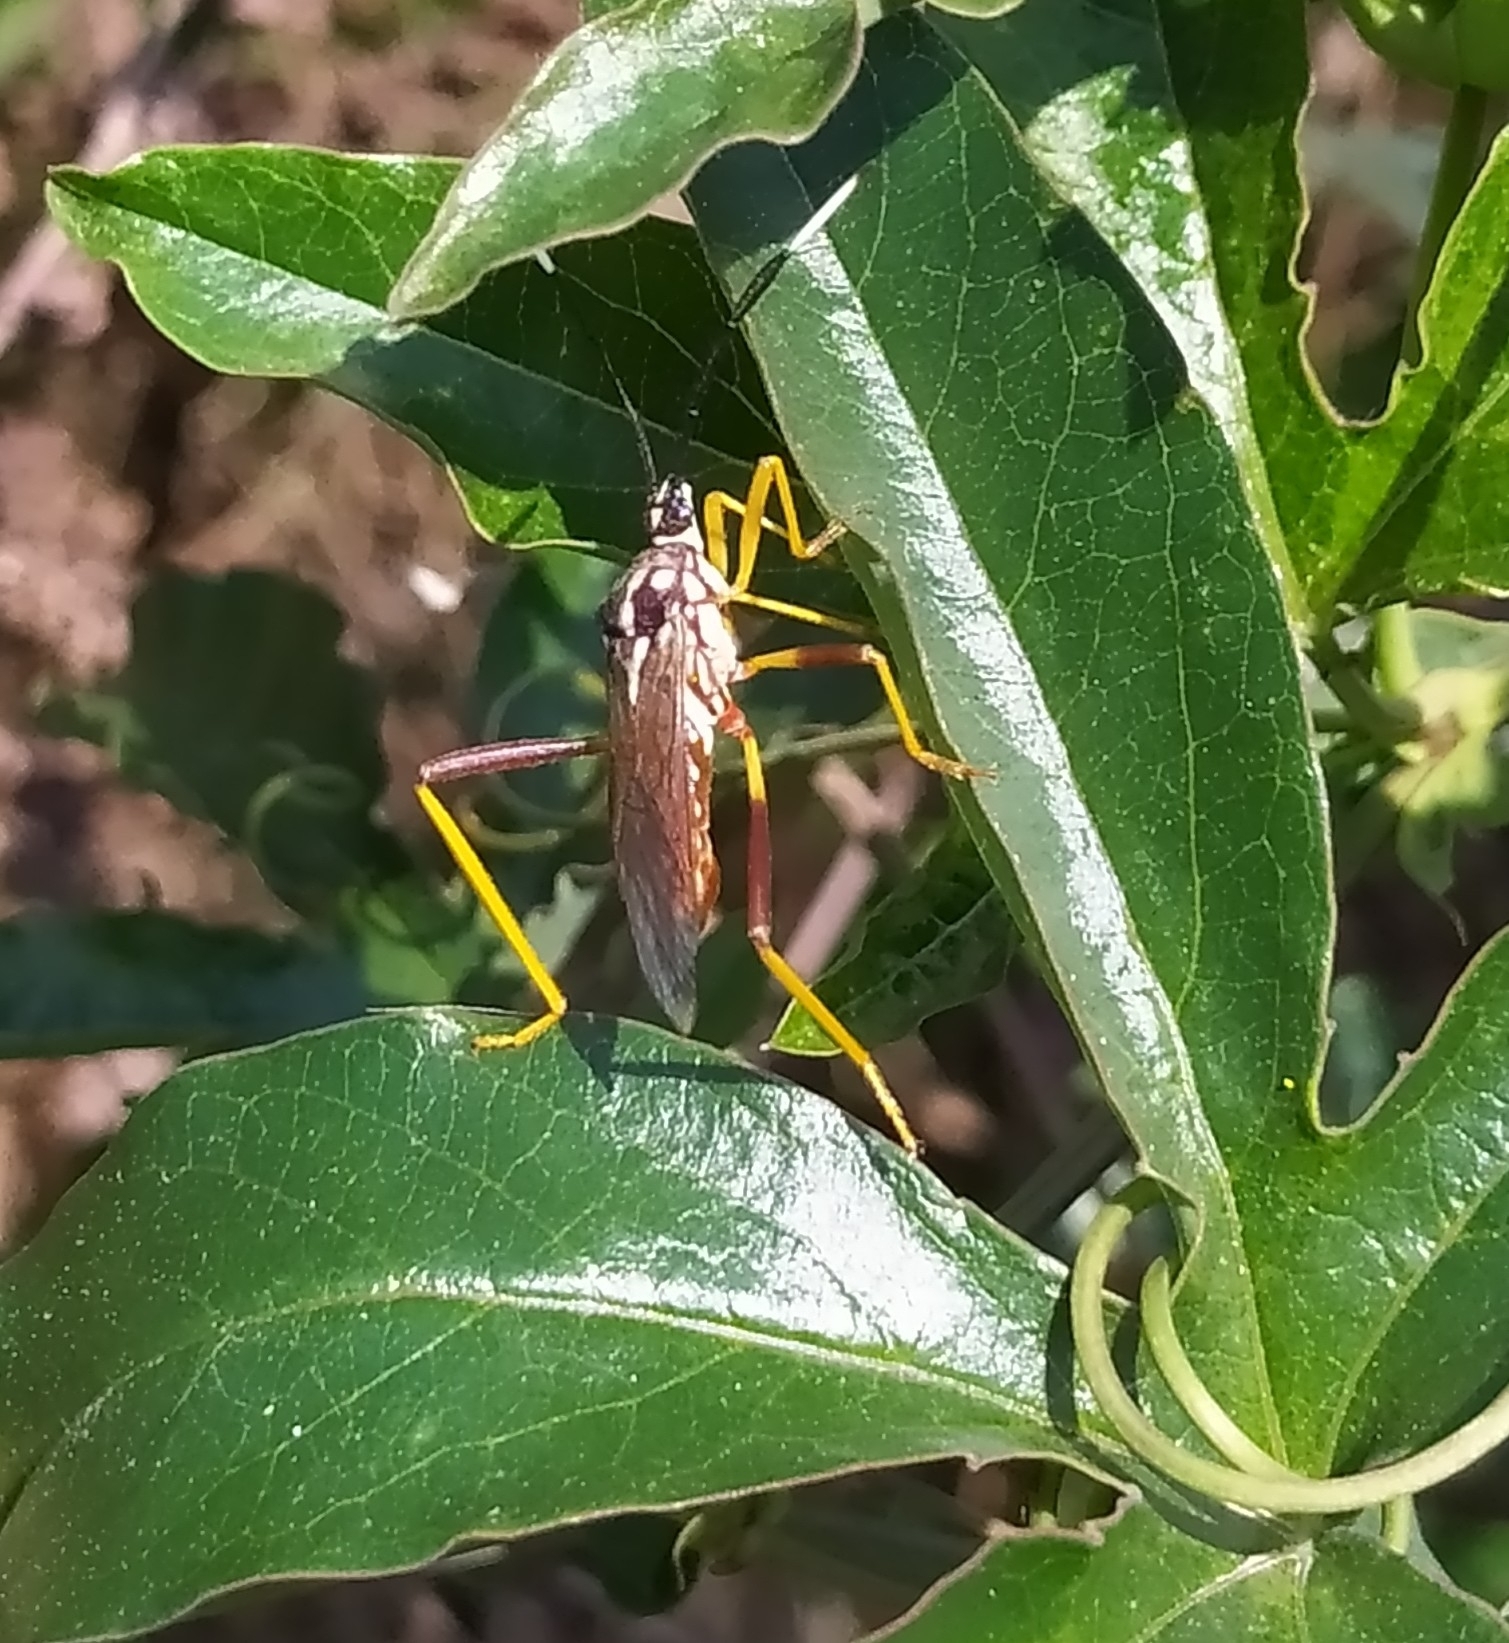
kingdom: Animalia
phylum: Arthropoda
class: Insecta
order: Hemiptera
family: Coreidae
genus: Holhymenia
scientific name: Holhymenia histrio
